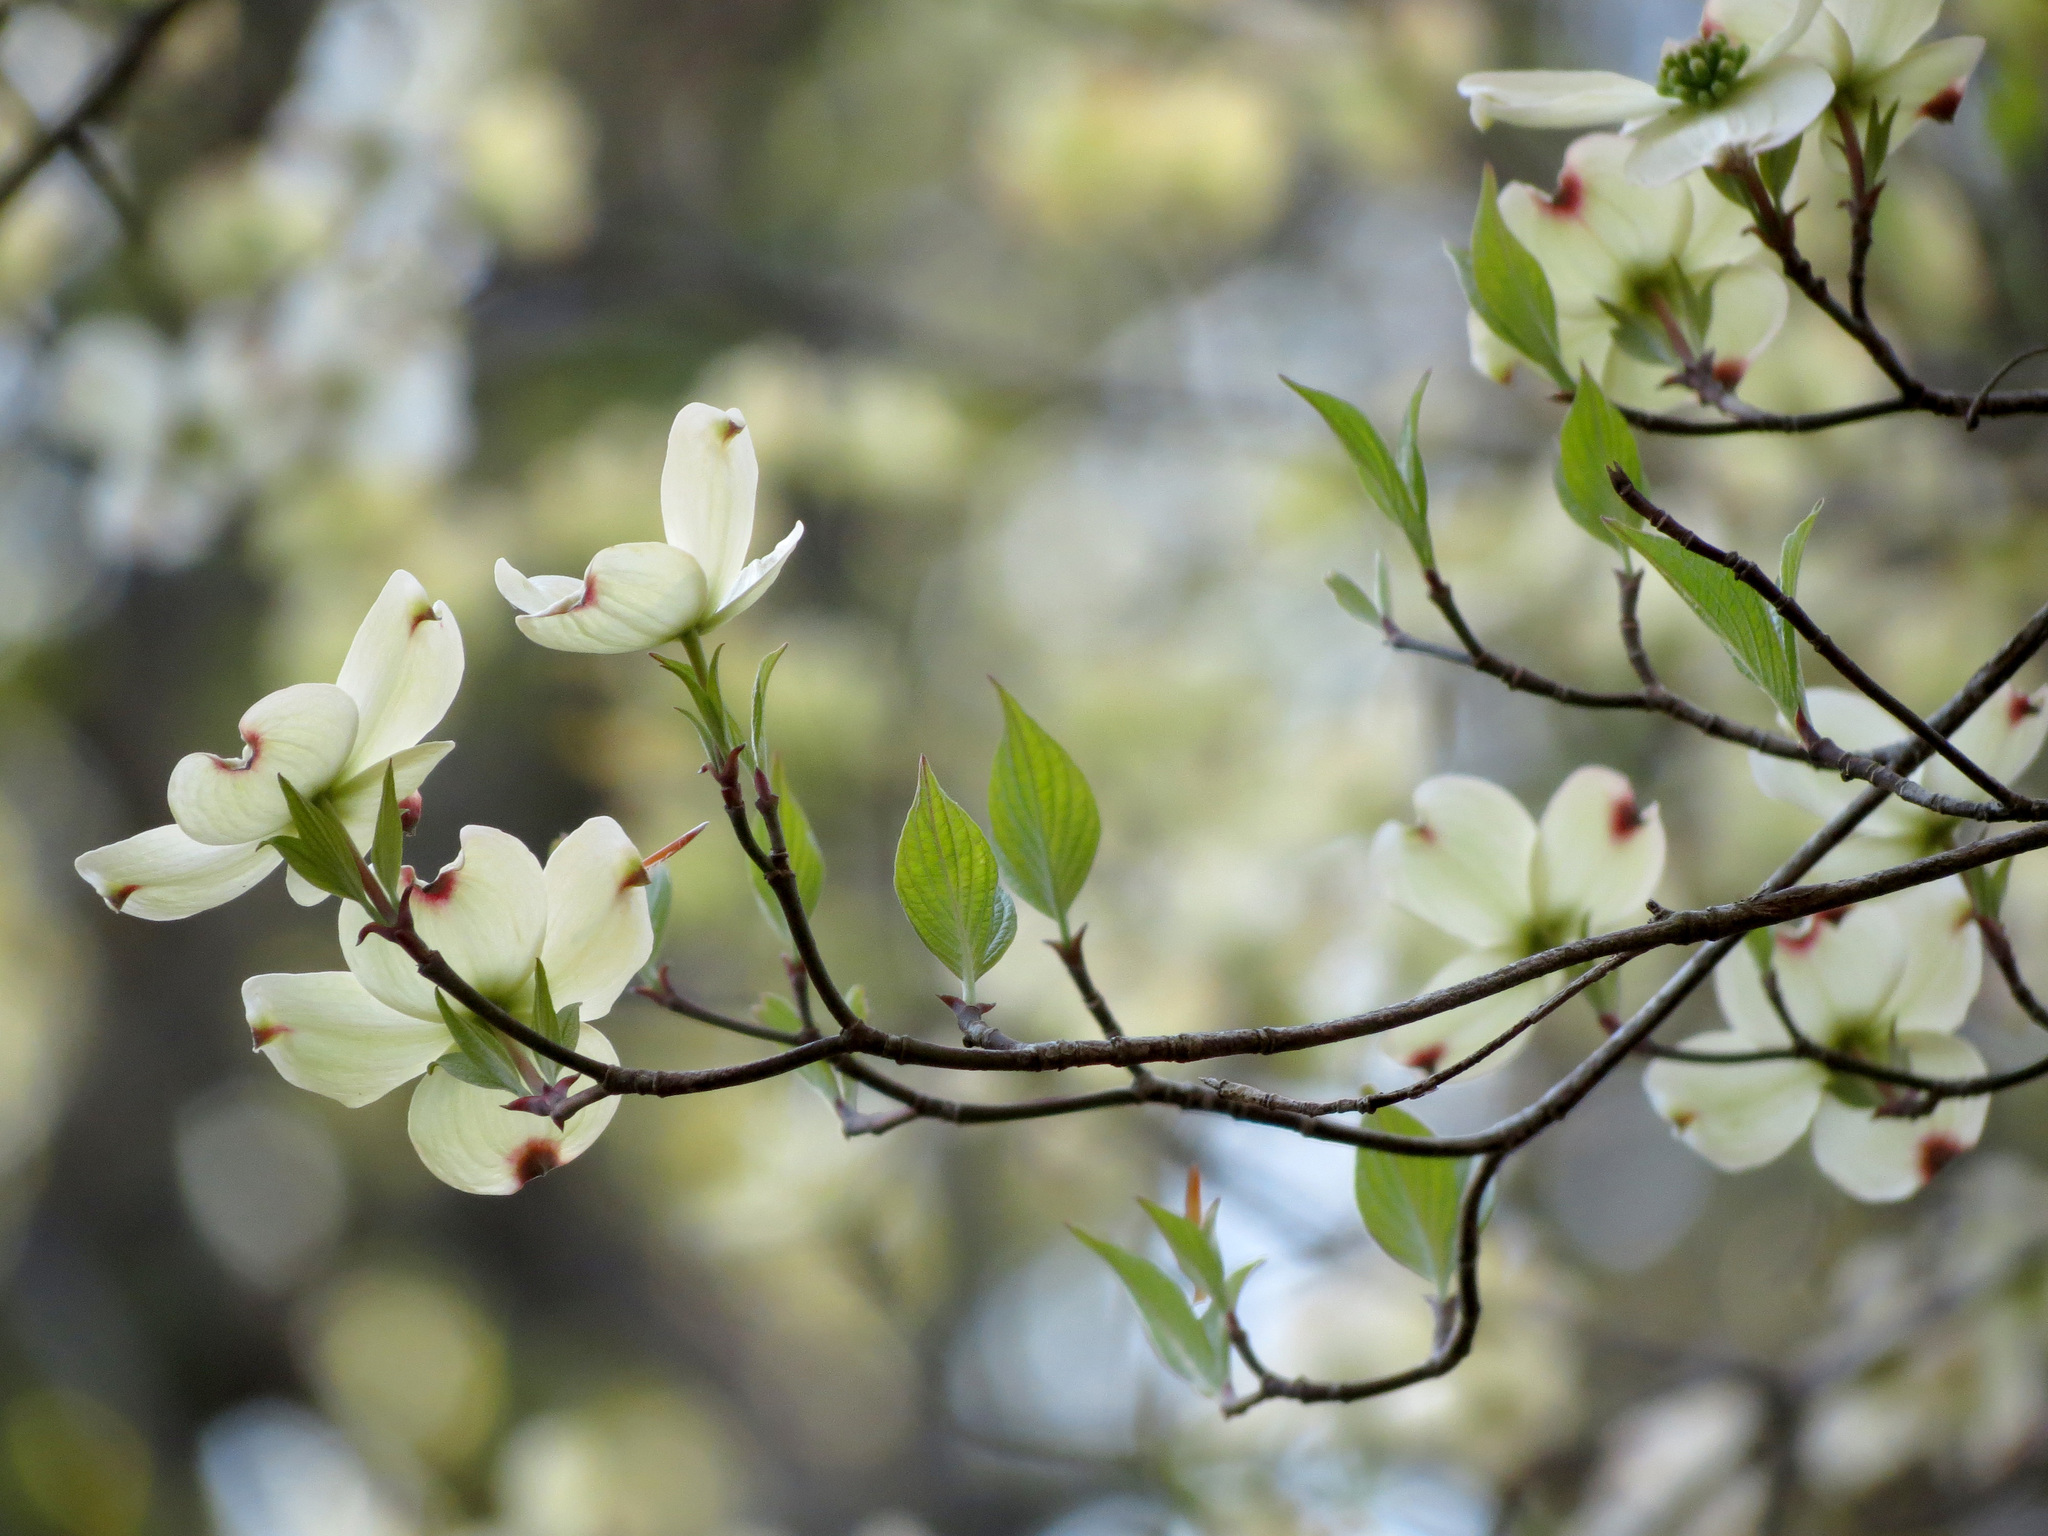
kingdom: Plantae
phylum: Tracheophyta
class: Magnoliopsida
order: Cornales
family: Cornaceae
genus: Cornus
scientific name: Cornus florida
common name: Flowering dogwood
